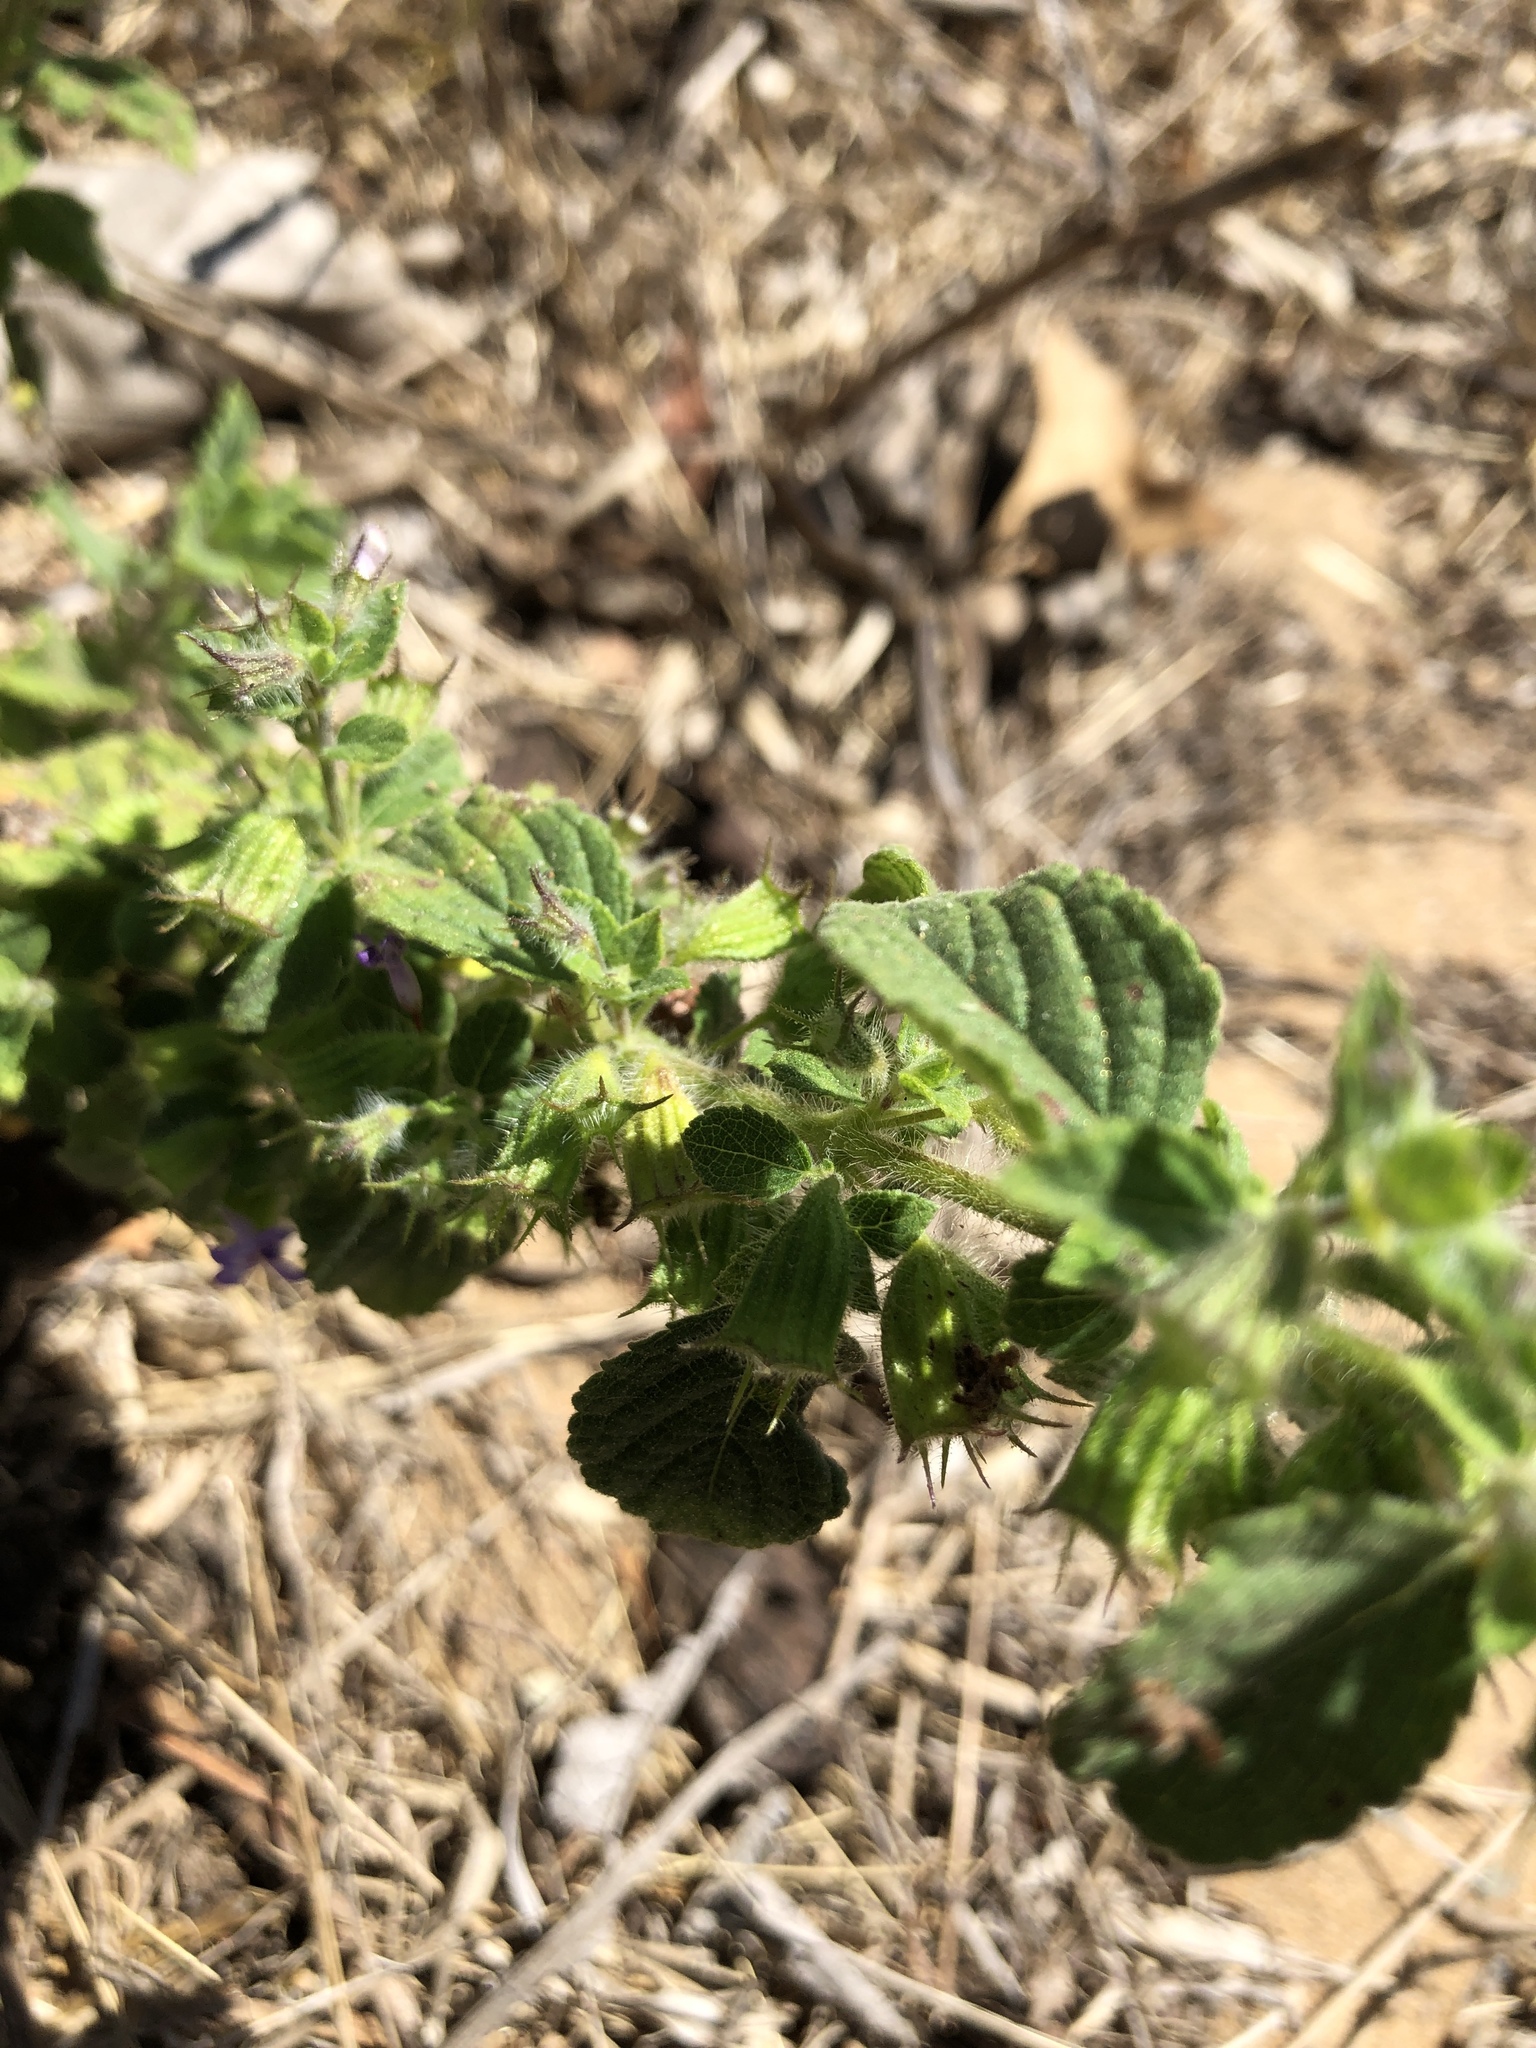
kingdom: Plantae
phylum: Tracheophyta
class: Magnoliopsida
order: Lamiales
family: Lamiaceae
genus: Mesosphaerum
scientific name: Mesosphaerum suaveolens
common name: Pignut
